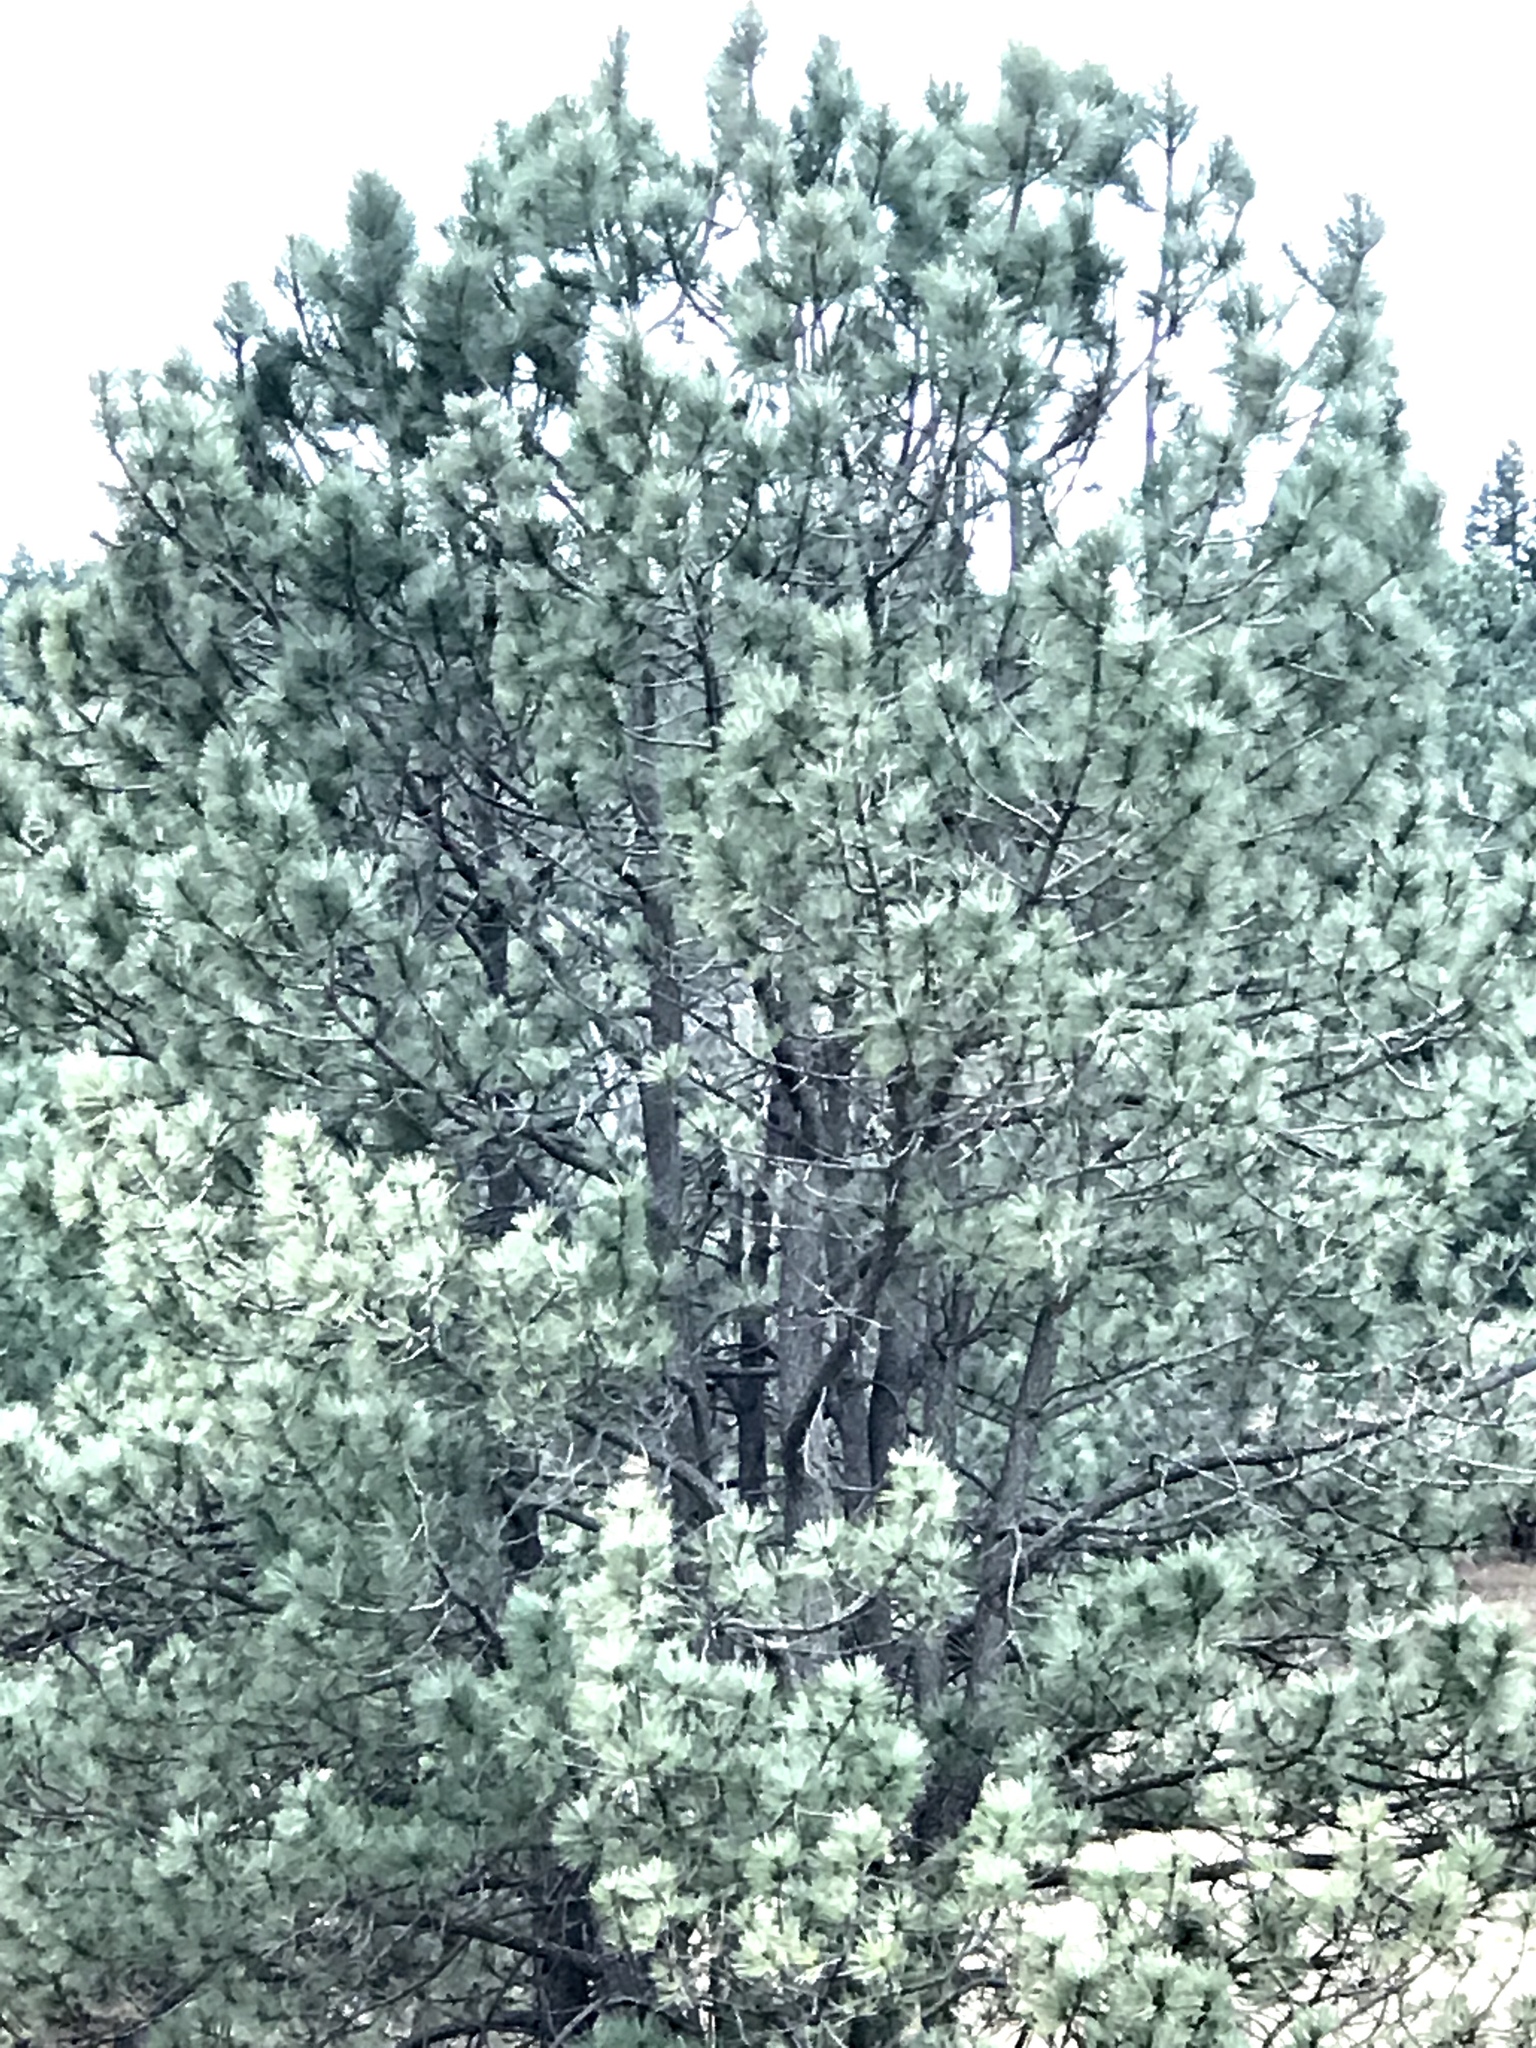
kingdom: Plantae
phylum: Tracheophyta
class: Pinopsida
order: Pinales
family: Pinaceae
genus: Pinus
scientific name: Pinus ponderosa
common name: Western yellow-pine
